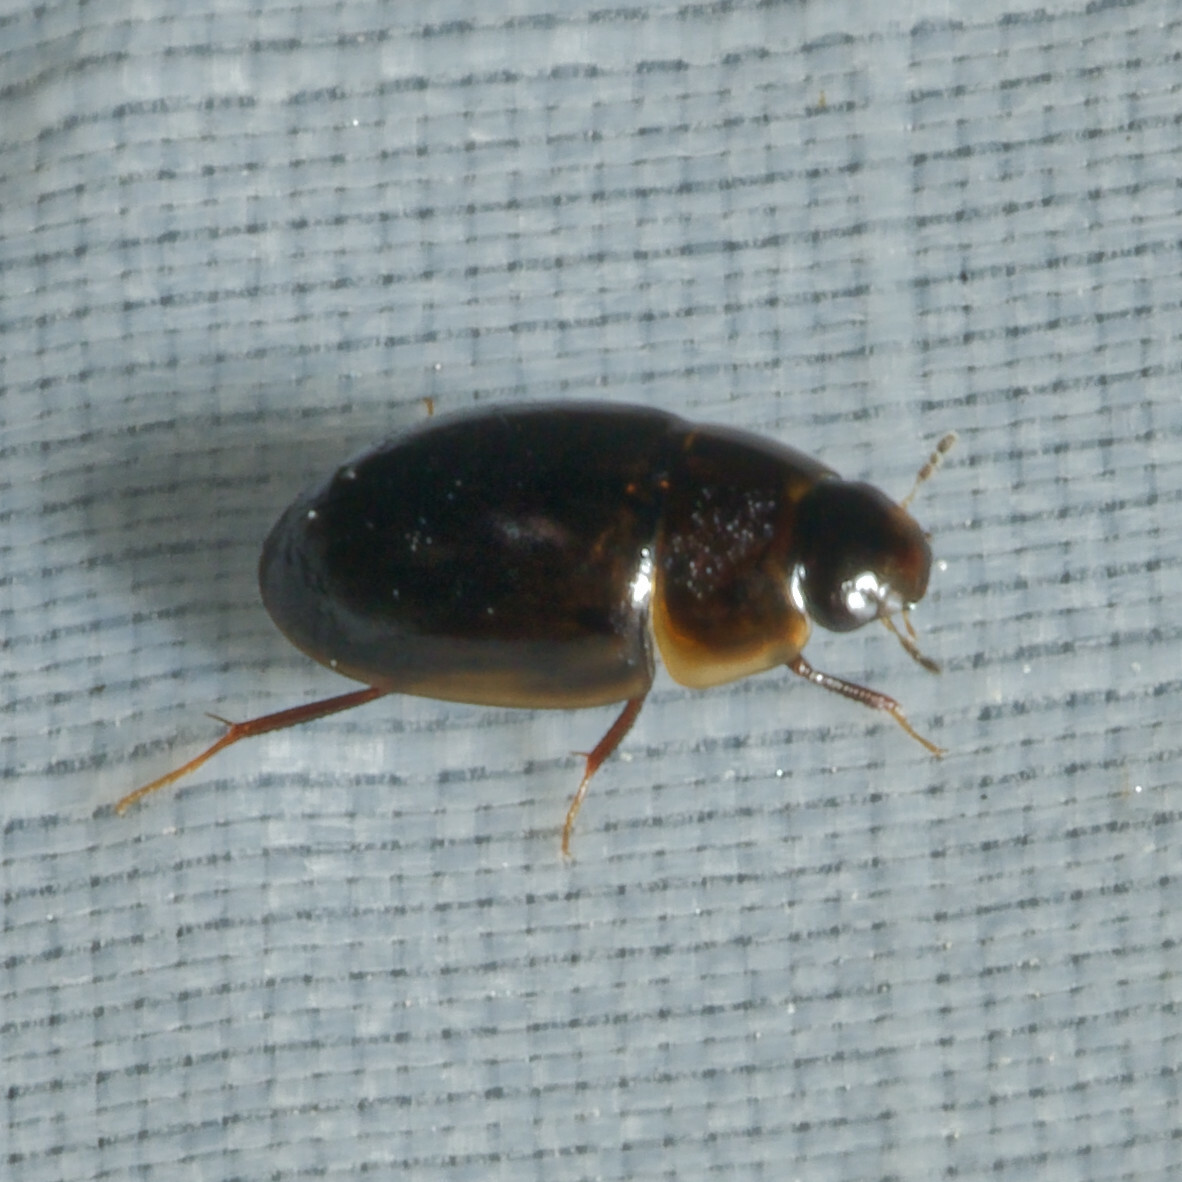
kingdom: Animalia
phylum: Arthropoda
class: Insecta
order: Coleoptera
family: Hydrophilidae
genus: Enochrus
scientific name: Enochrus
